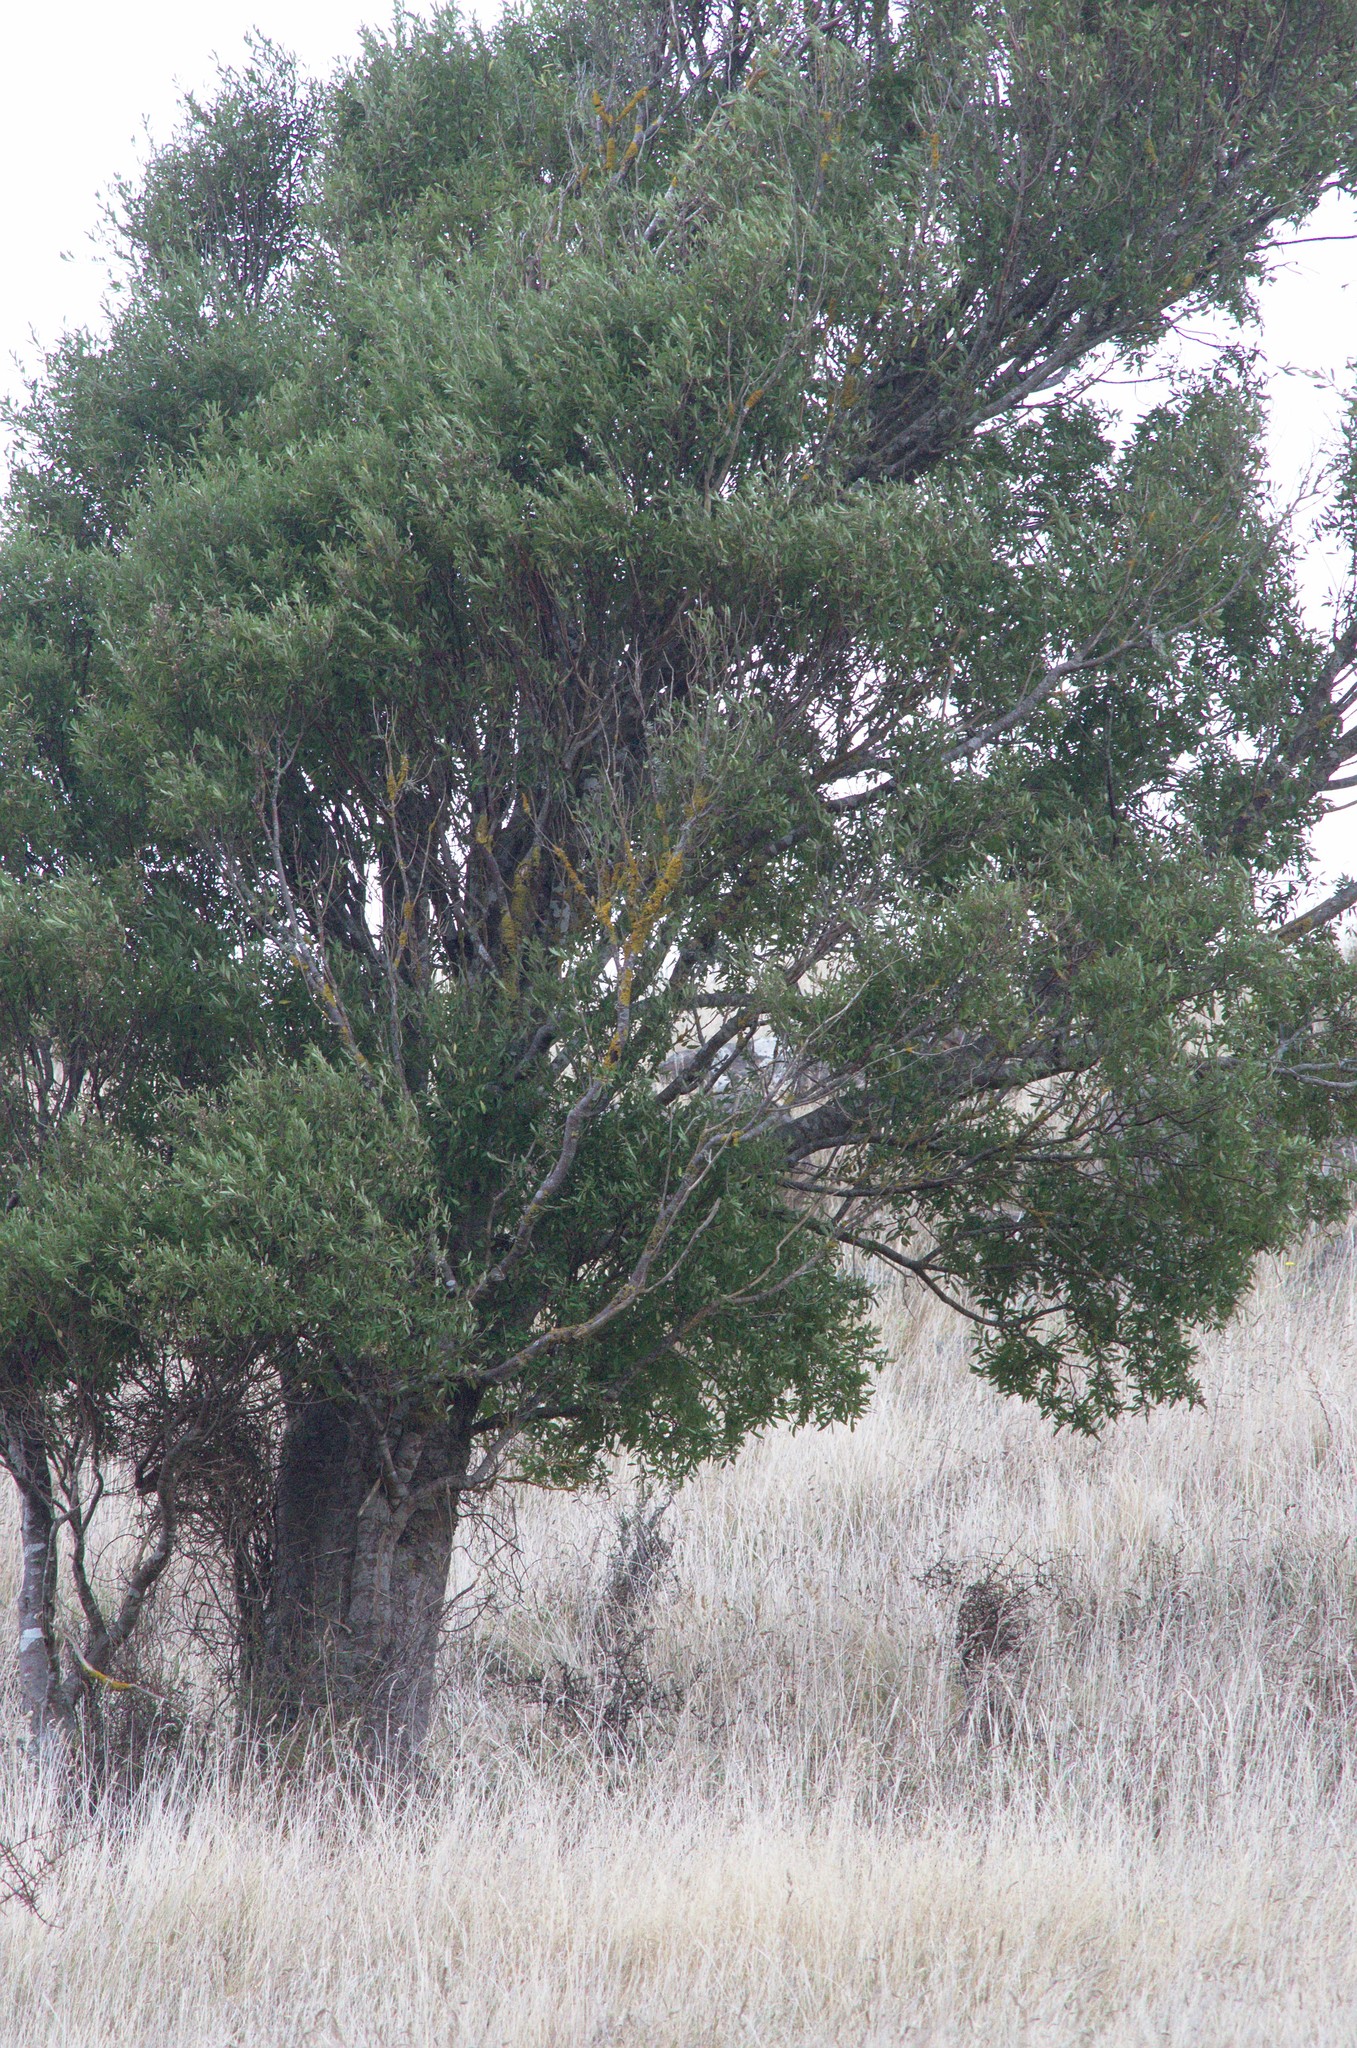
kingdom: Plantae
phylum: Tracheophyta
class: Magnoliopsida
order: Malvales
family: Malvaceae
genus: Hoheria
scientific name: Hoheria angustifolia
